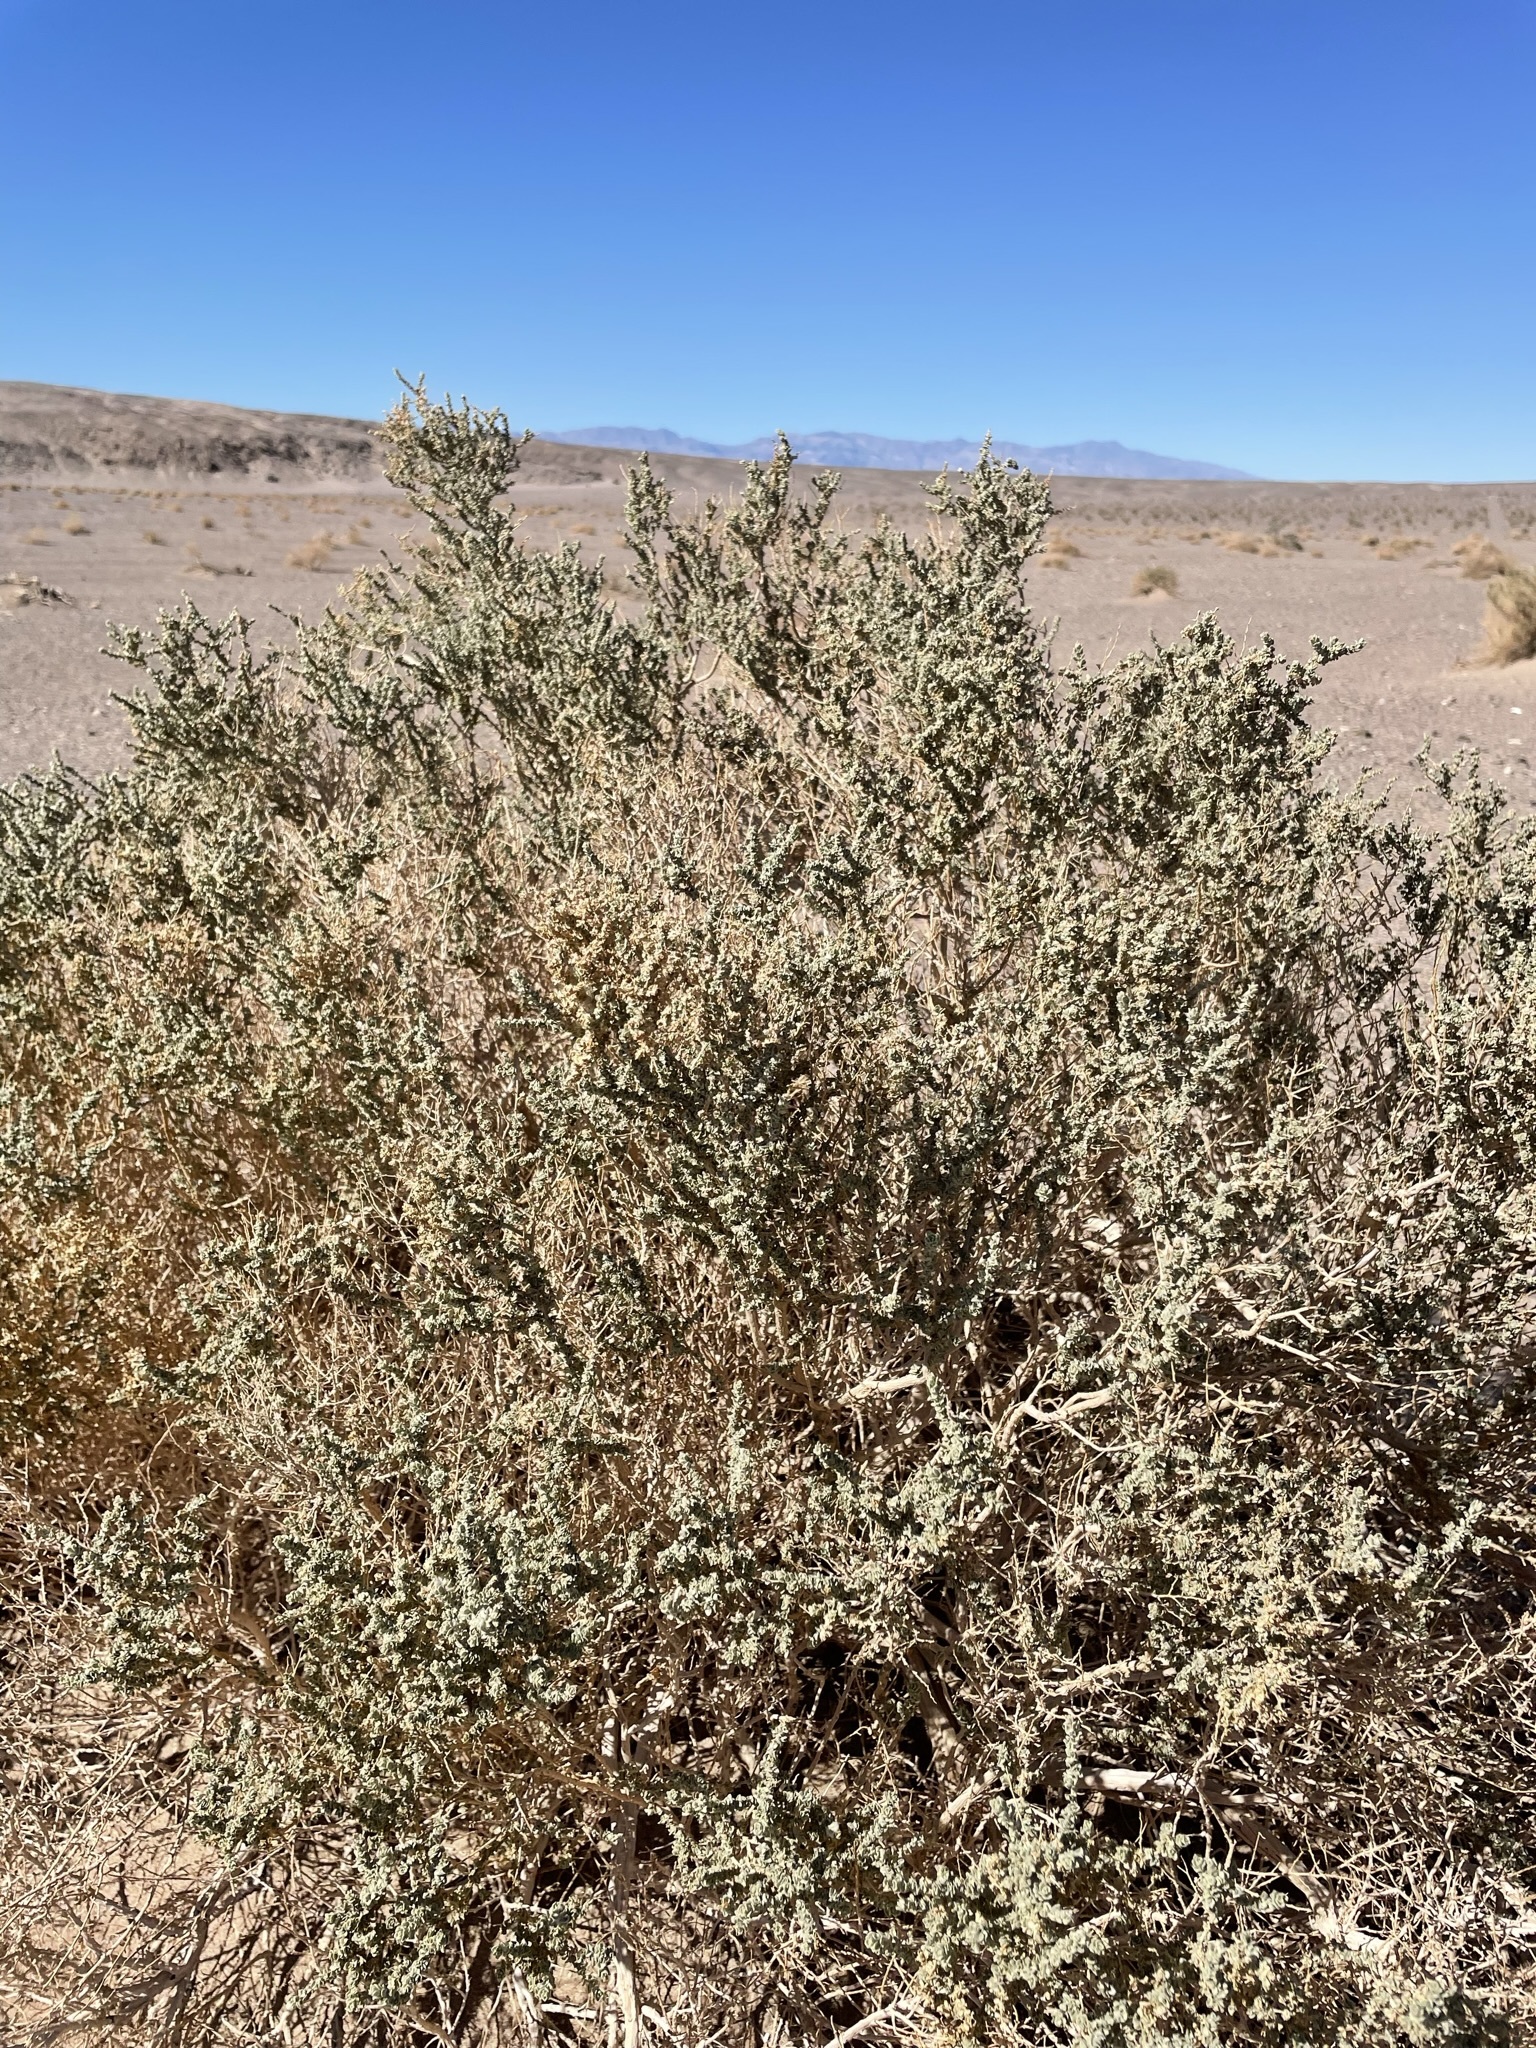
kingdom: Plantae
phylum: Tracheophyta
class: Magnoliopsida
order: Caryophyllales
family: Amaranthaceae
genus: Atriplex
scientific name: Atriplex polycarpa
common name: Desert saltbush
